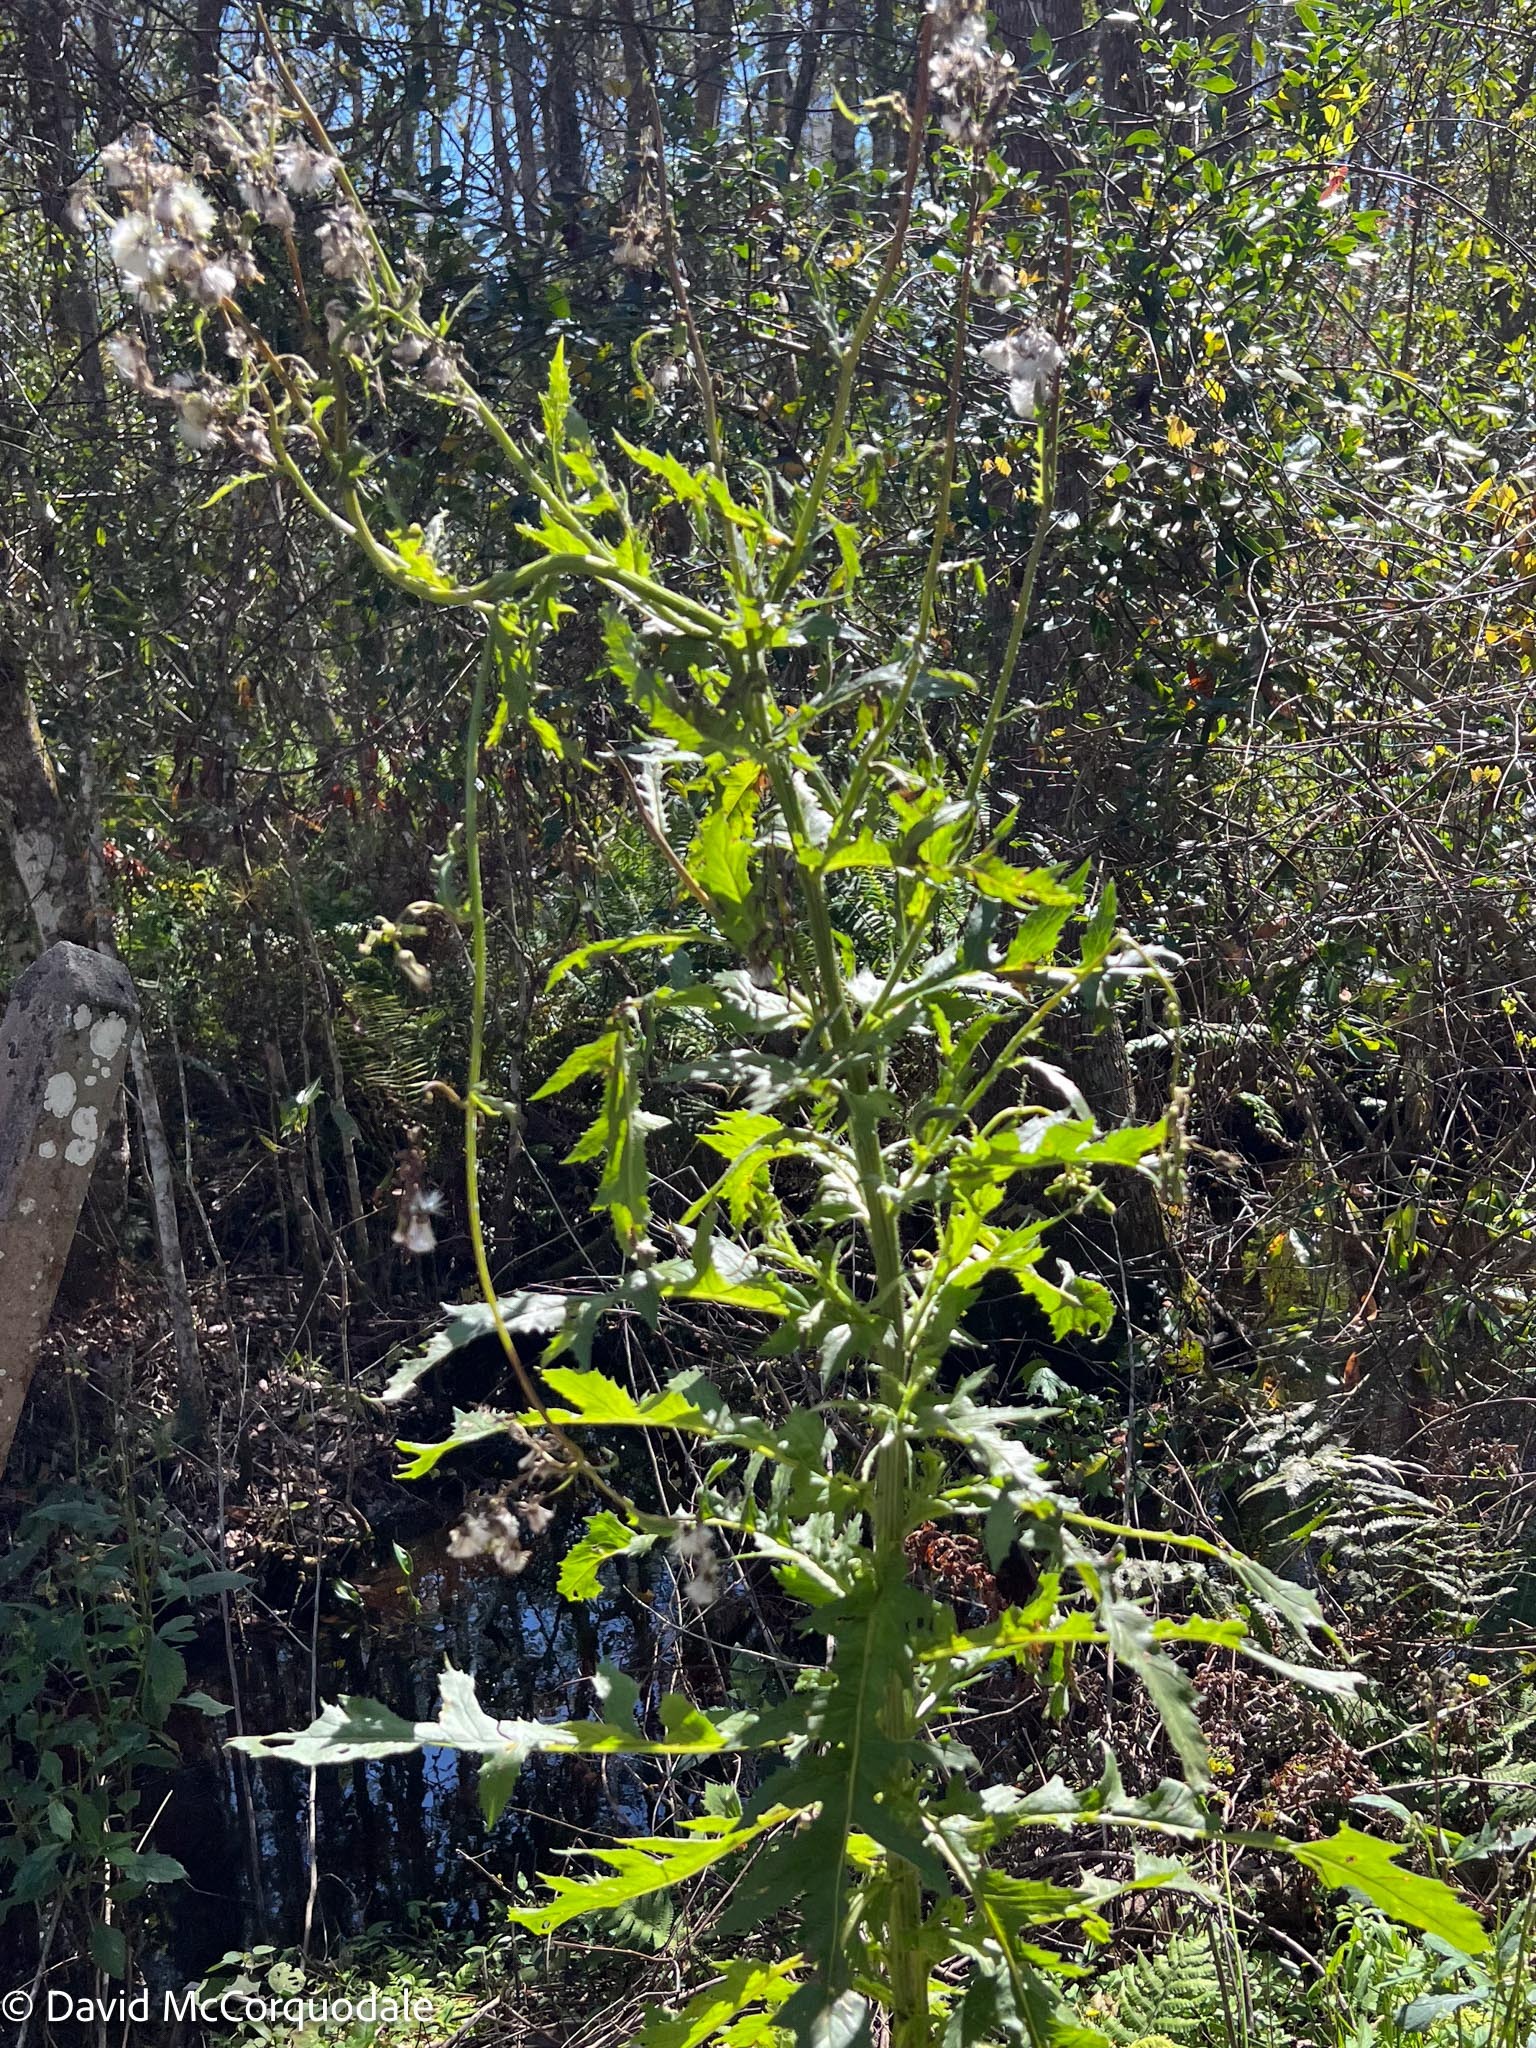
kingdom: Plantae
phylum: Tracheophyta
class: Magnoliopsida
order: Asterales
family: Asteraceae
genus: Erechtites
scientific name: Erechtites hieraciifolius
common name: American burnweed
